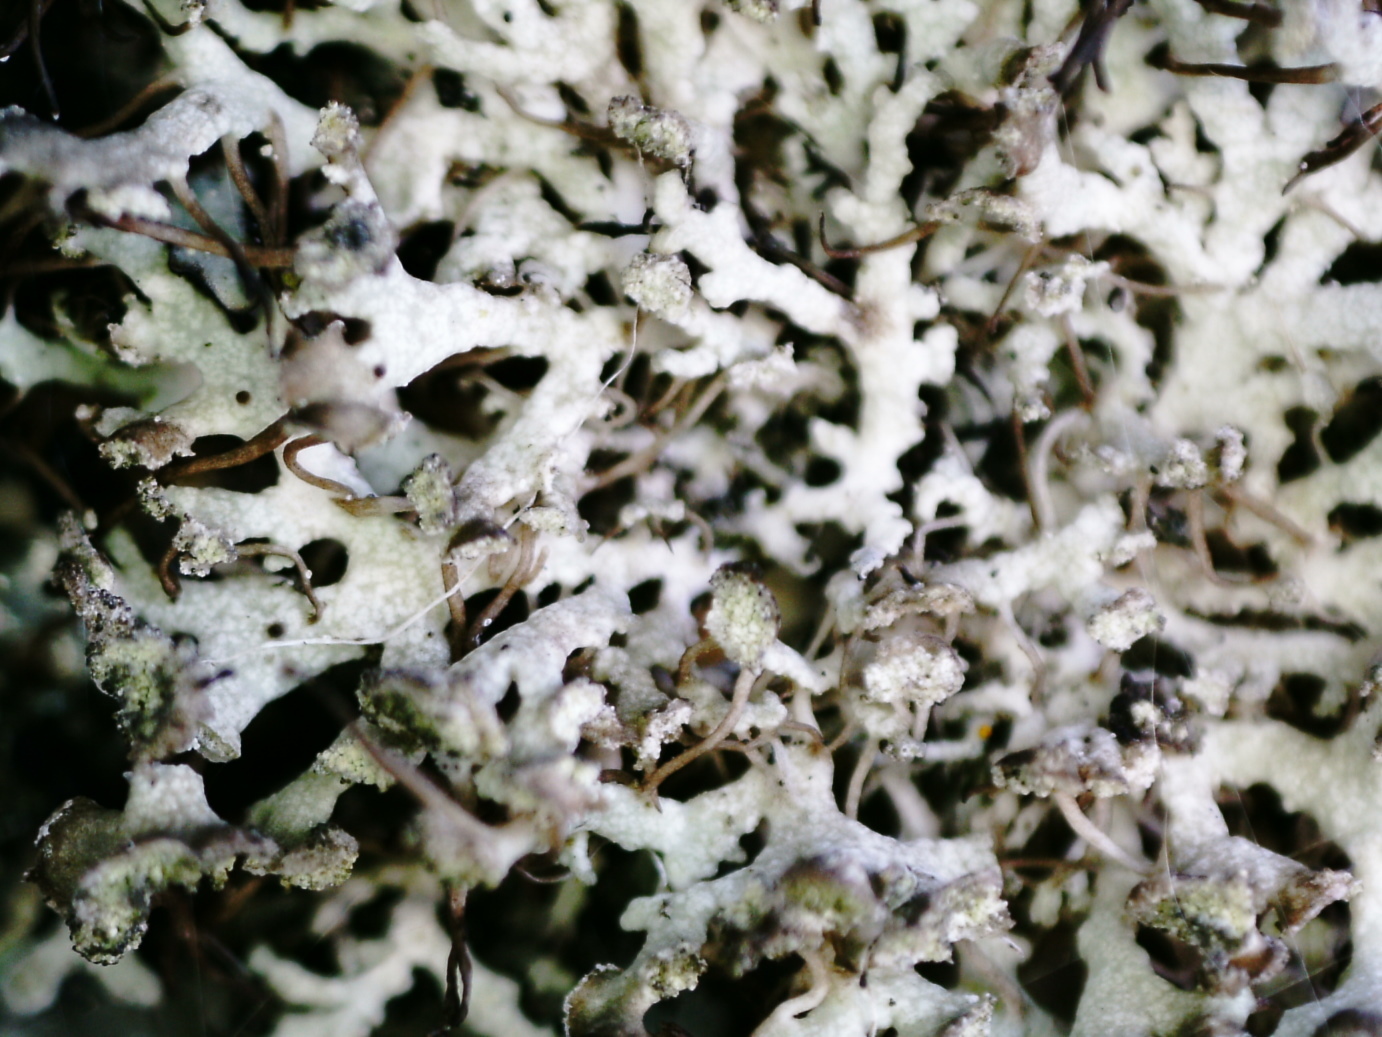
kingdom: Fungi
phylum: Ascomycota
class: Lecanoromycetes
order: Caliciales
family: Physciaceae
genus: Physcia
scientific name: Physcia tenella
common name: Fringed rosette lichen
